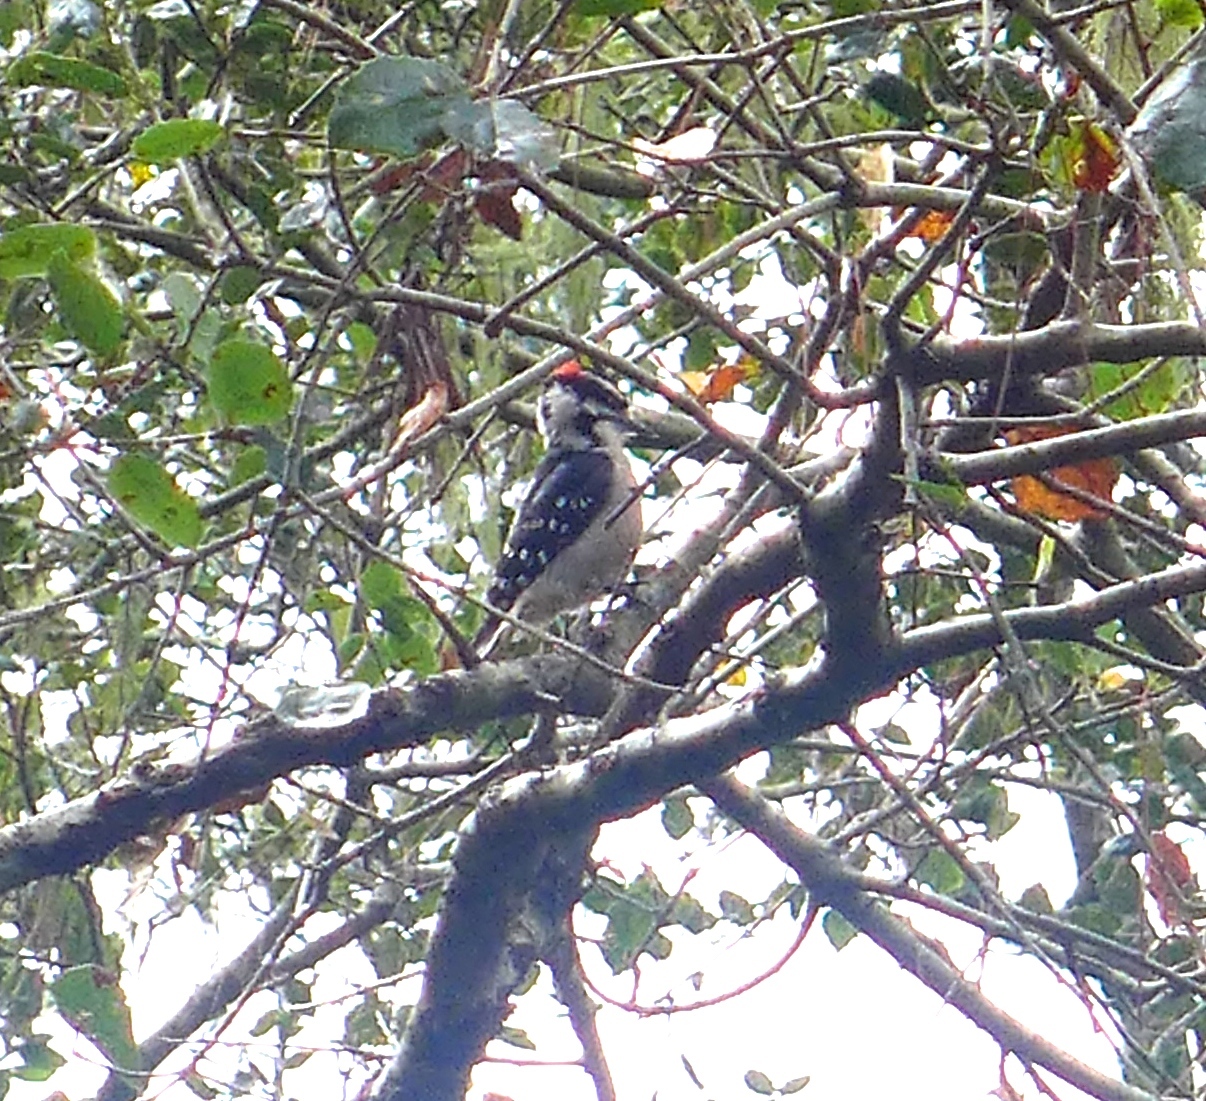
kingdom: Animalia
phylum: Chordata
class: Aves
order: Piciformes
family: Picidae
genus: Dryobates
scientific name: Dryobates pubescens
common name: Downy woodpecker
